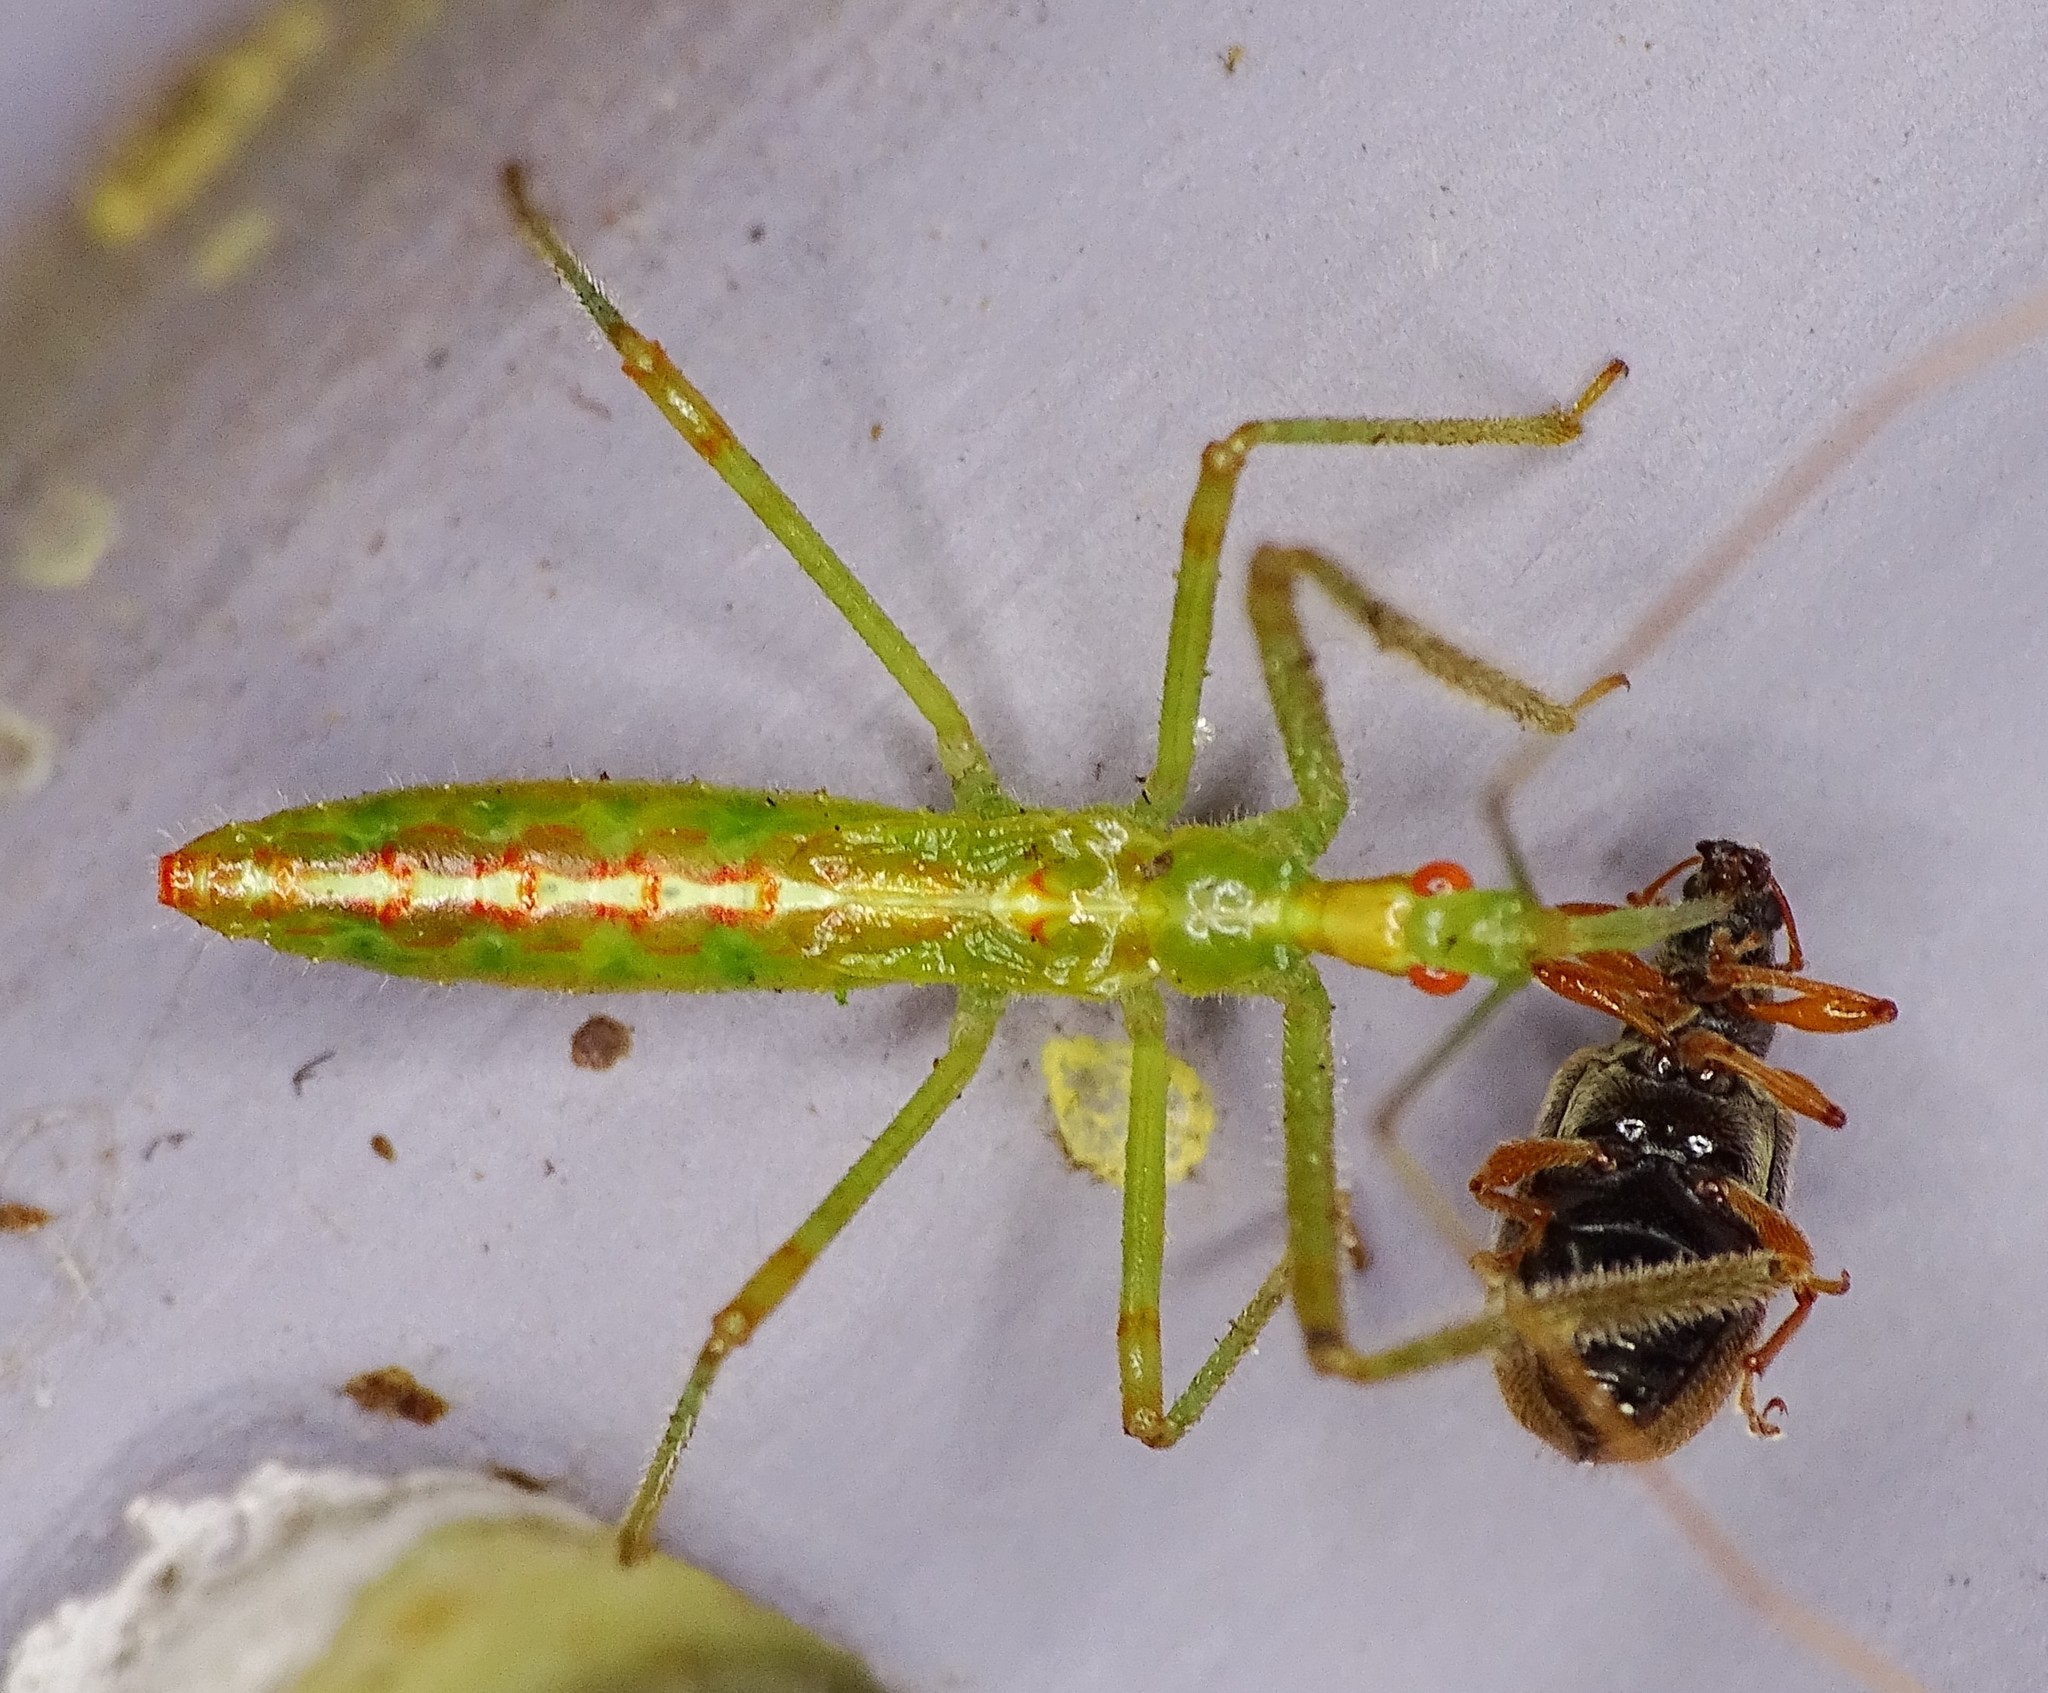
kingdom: Animalia
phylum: Arthropoda
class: Insecta
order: Hemiptera
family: Reduviidae
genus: Zelus
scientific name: Zelus luridus
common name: Pale green assassin bug
